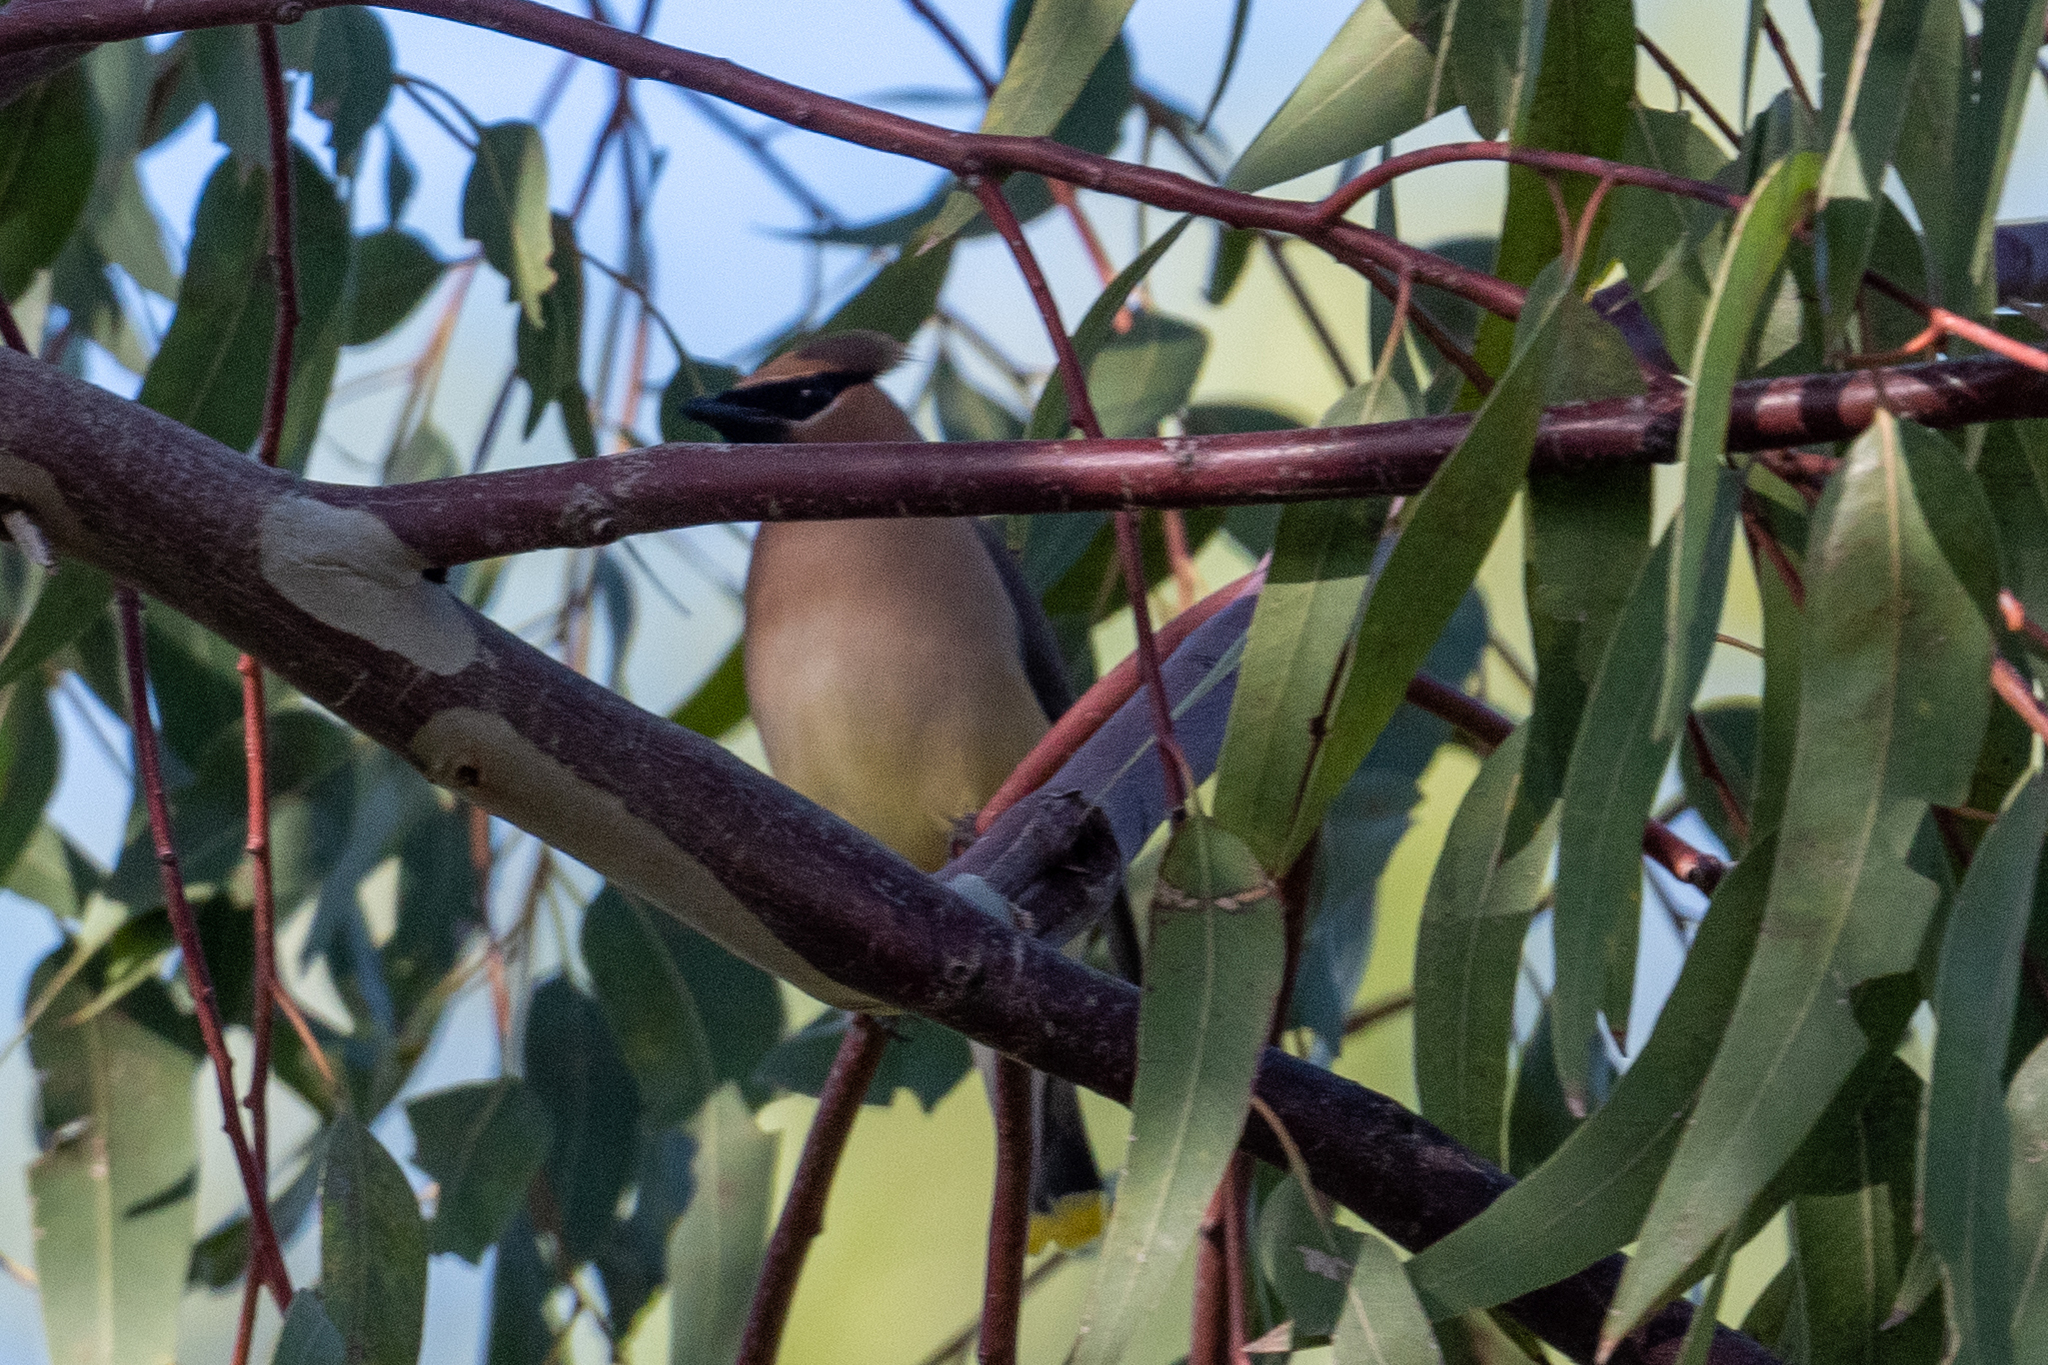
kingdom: Animalia
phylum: Chordata
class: Aves
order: Passeriformes
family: Bombycillidae
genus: Bombycilla
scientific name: Bombycilla cedrorum
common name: Cedar waxwing
